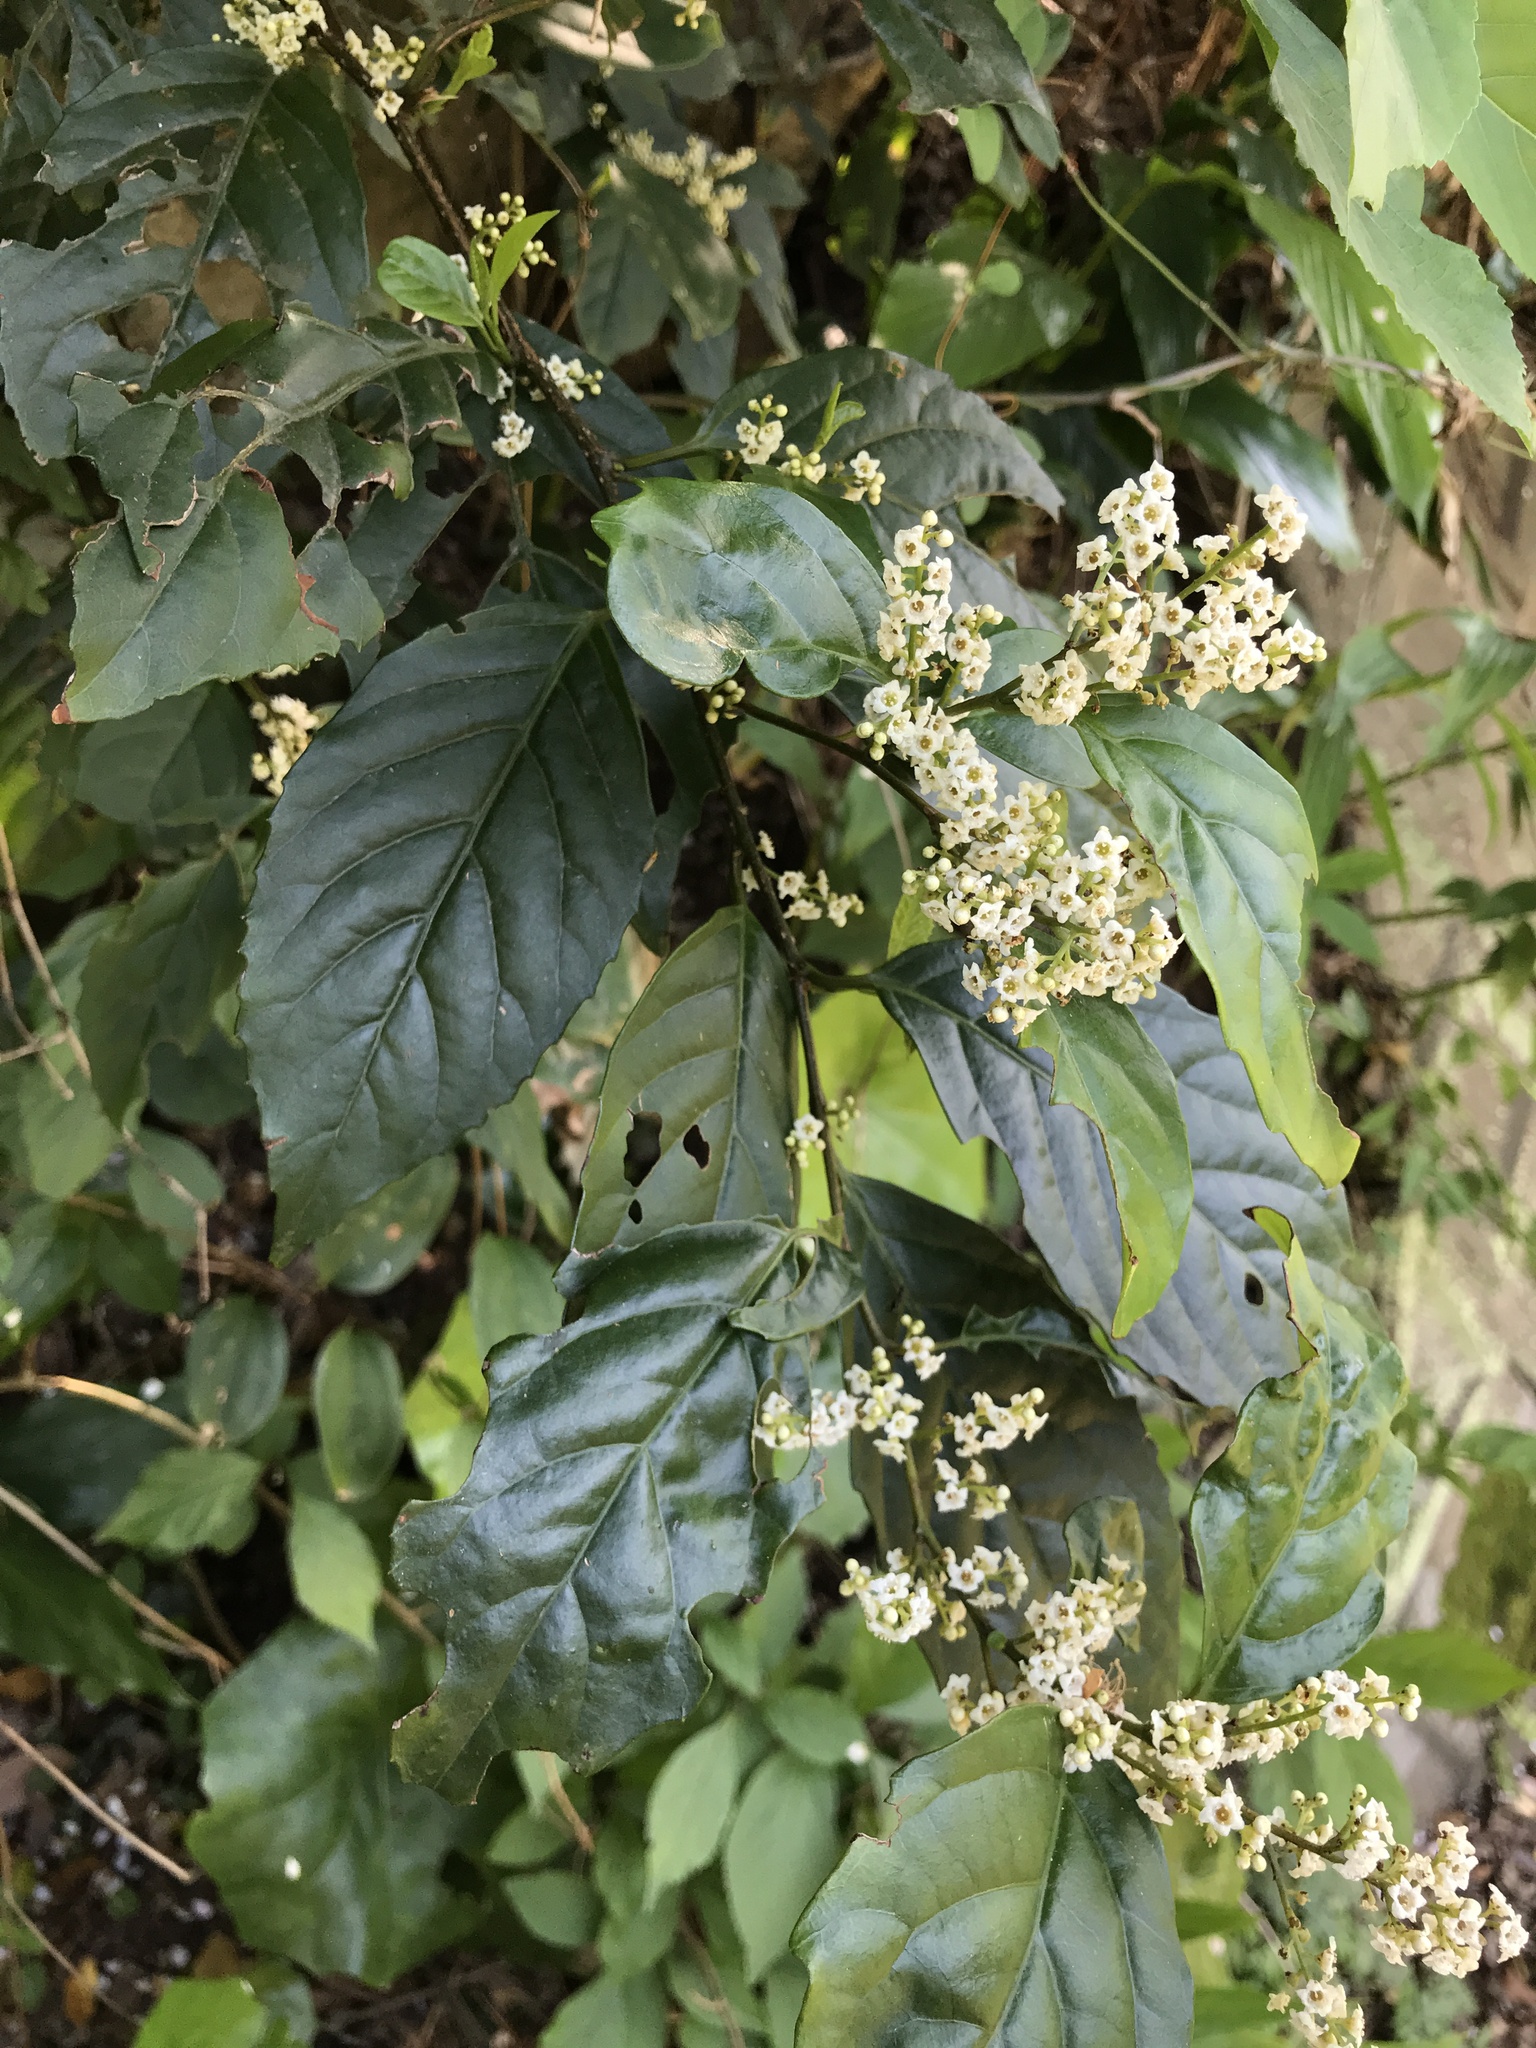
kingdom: Plantae
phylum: Tracheophyta
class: Magnoliopsida
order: Ericales
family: Primulaceae
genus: Maesa
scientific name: Maesa perlaria
